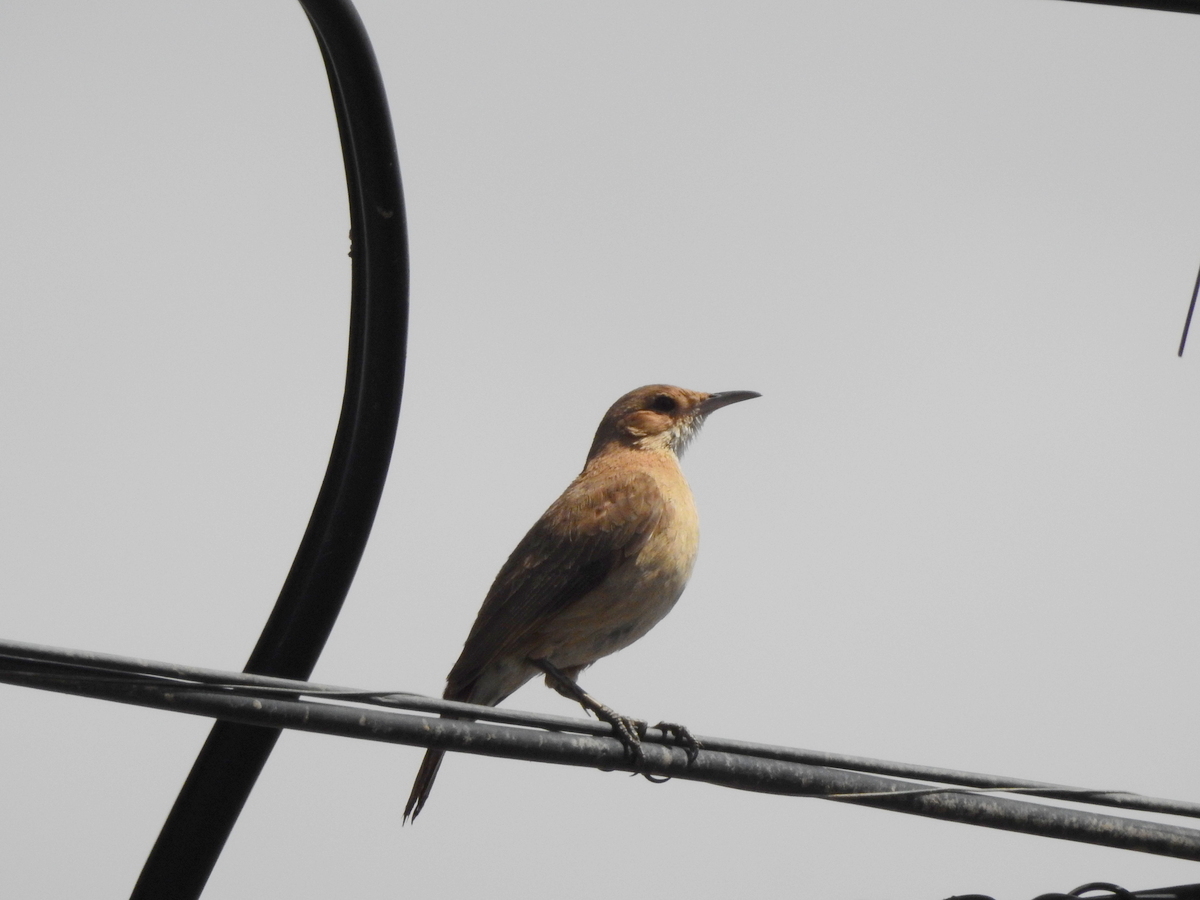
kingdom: Animalia
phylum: Chordata
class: Aves
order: Passeriformes
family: Furnariidae
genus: Furnarius
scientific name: Furnarius rufus
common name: Rufous hornero
